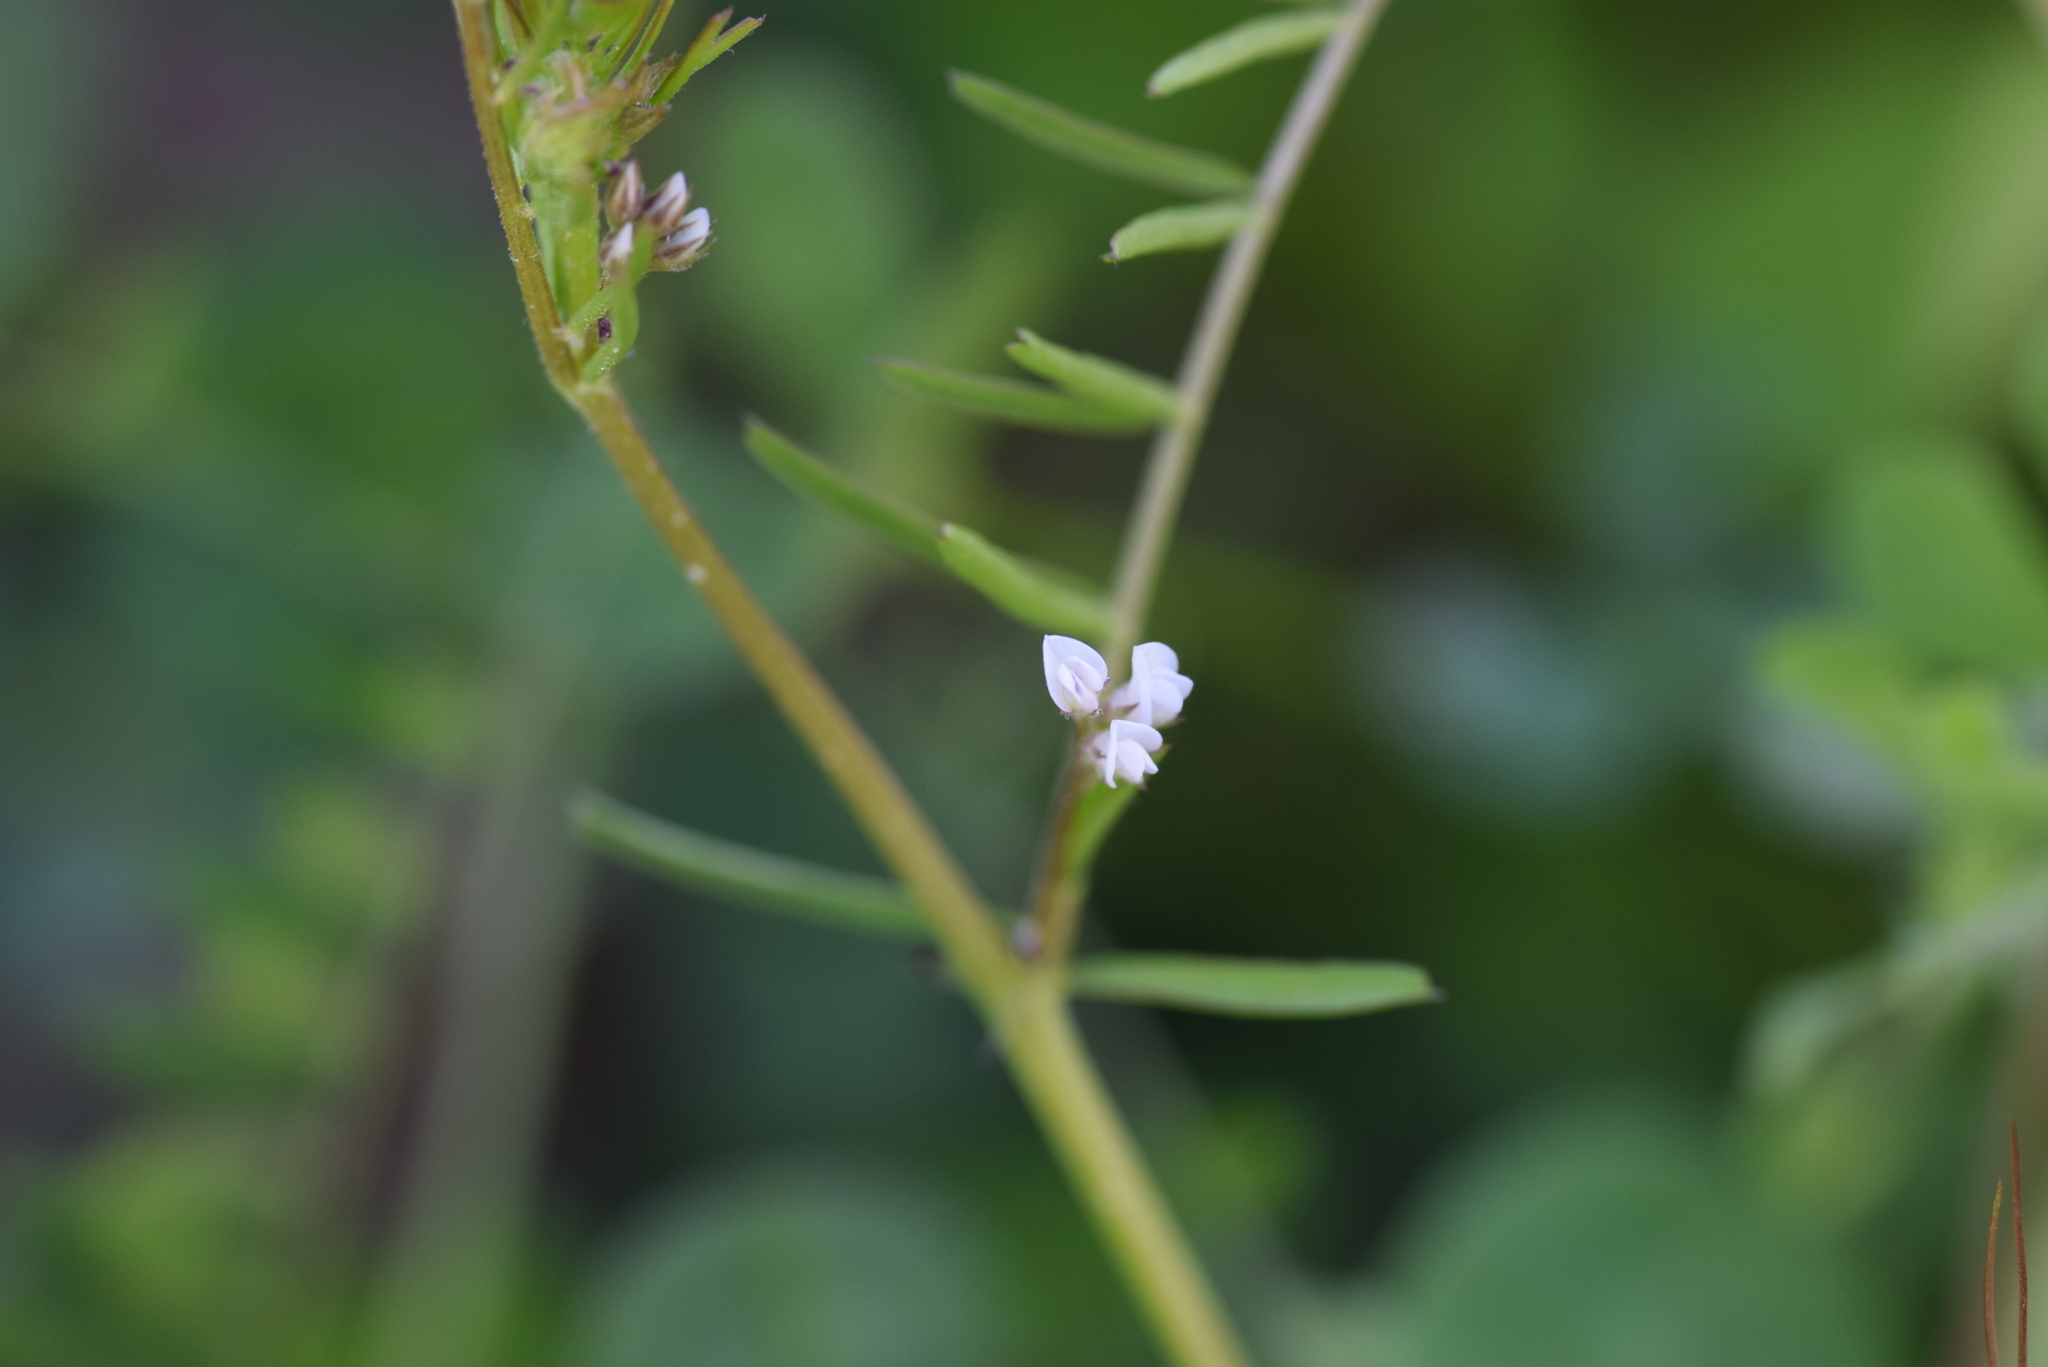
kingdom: Plantae
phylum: Tracheophyta
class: Magnoliopsida
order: Fabales
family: Fabaceae
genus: Vicia
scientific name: Vicia hirsuta
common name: Tiny vetch
